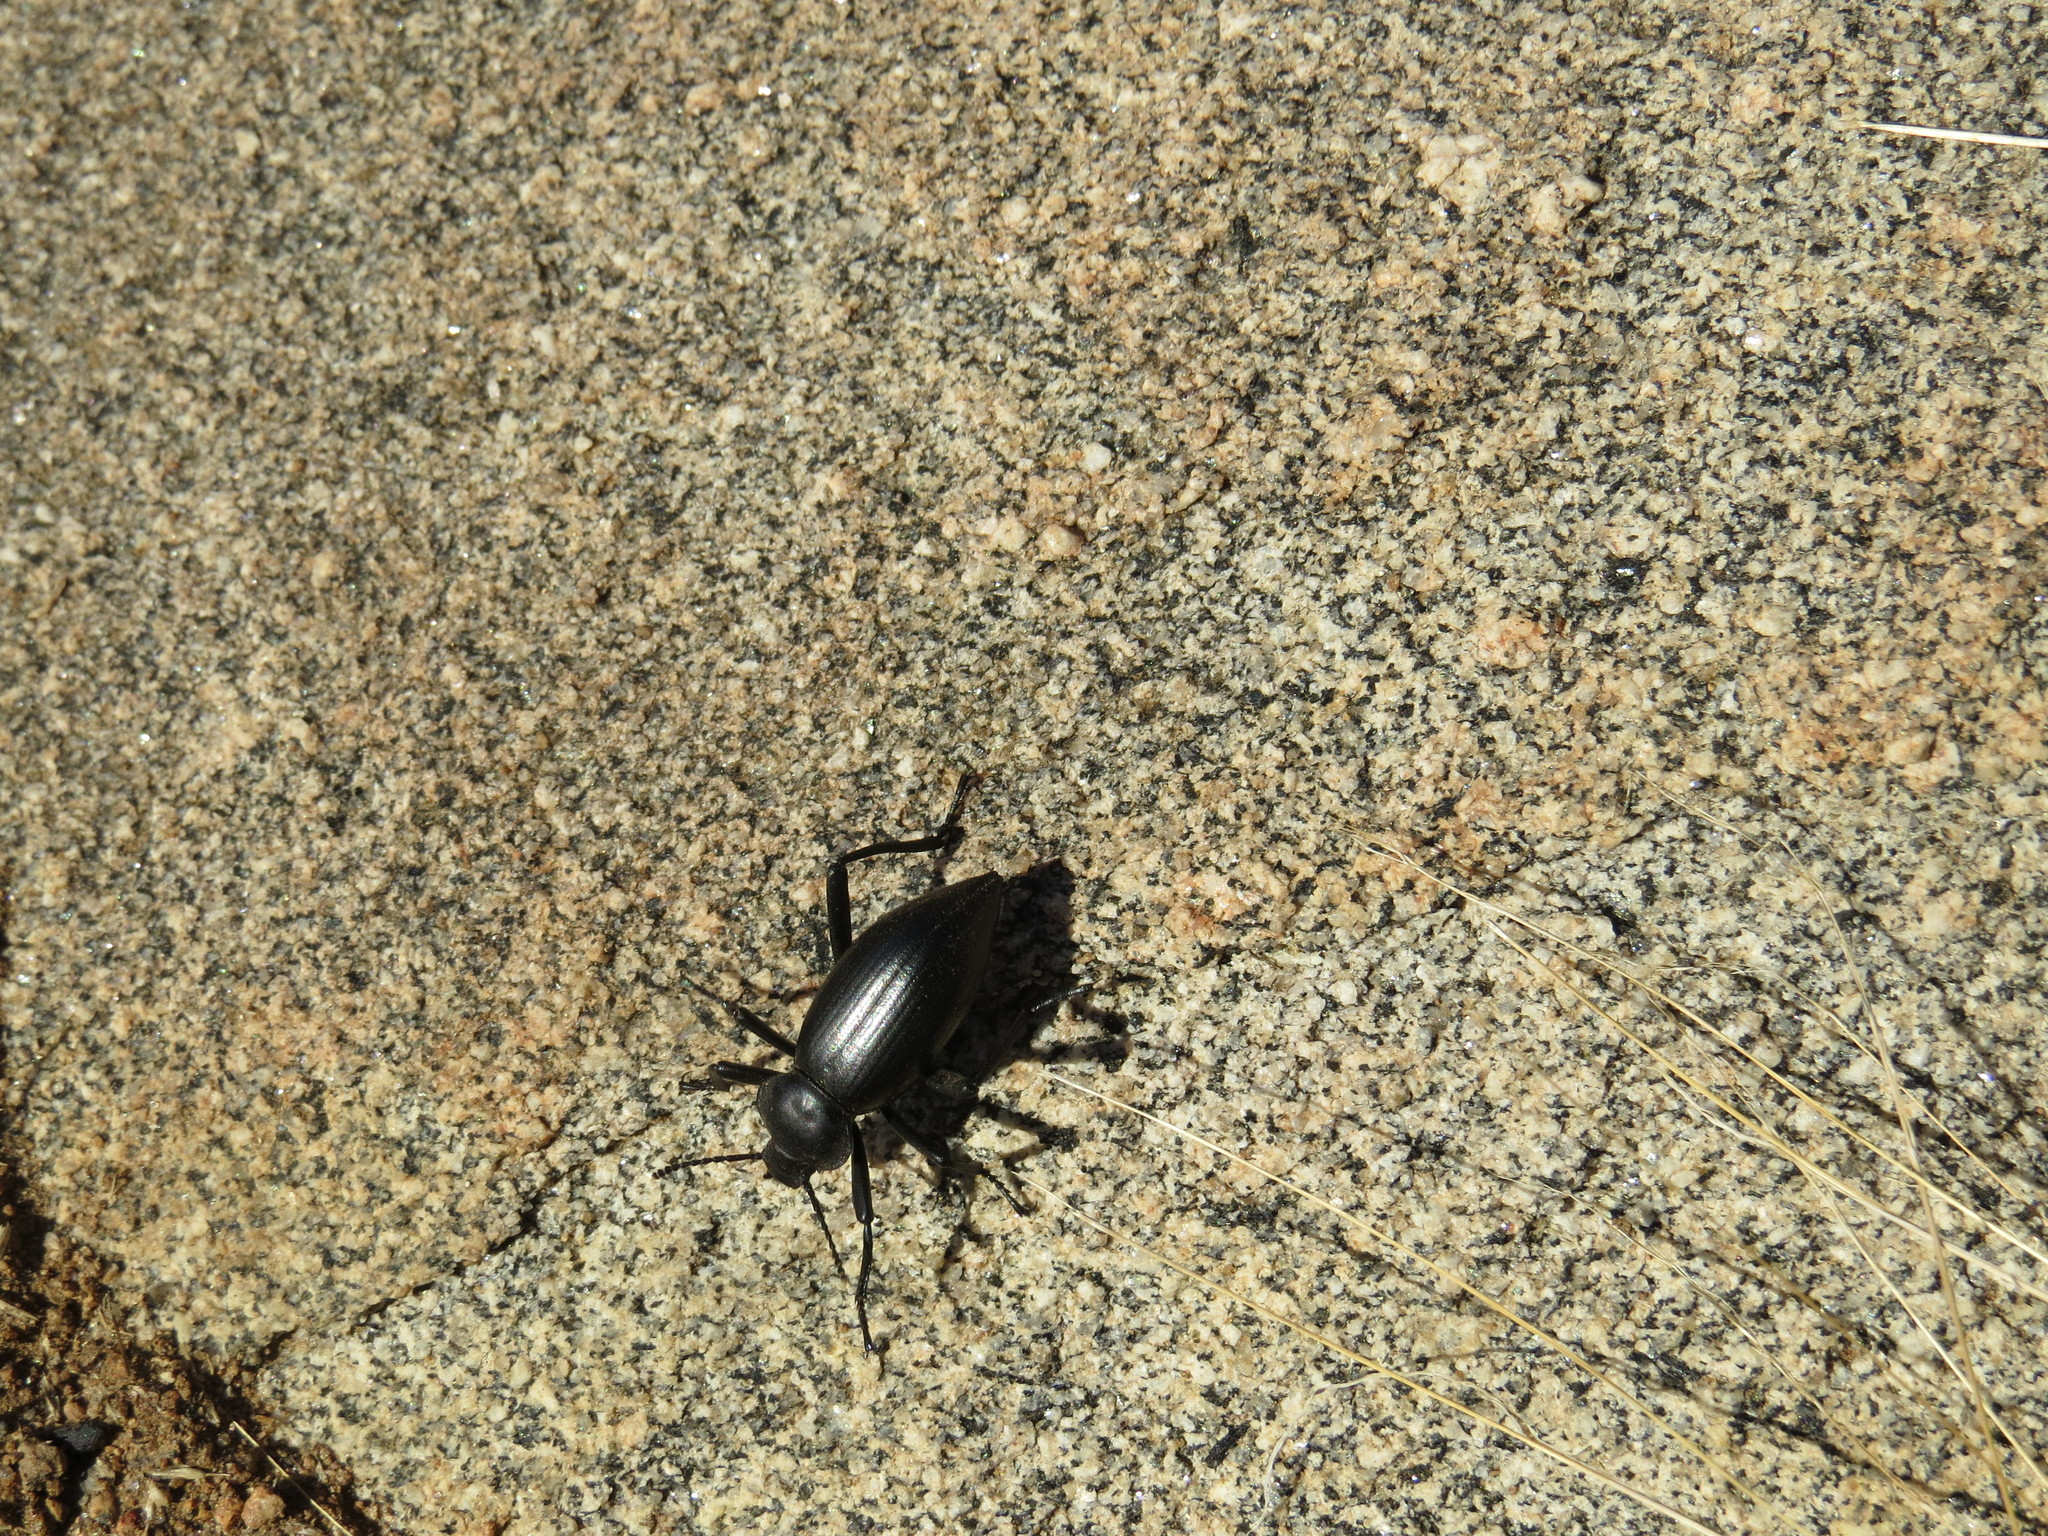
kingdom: Animalia
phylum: Arthropoda
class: Insecta
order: Coleoptera
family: Tenebrionidae
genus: Eleodes
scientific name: Eleodes acuticauda
